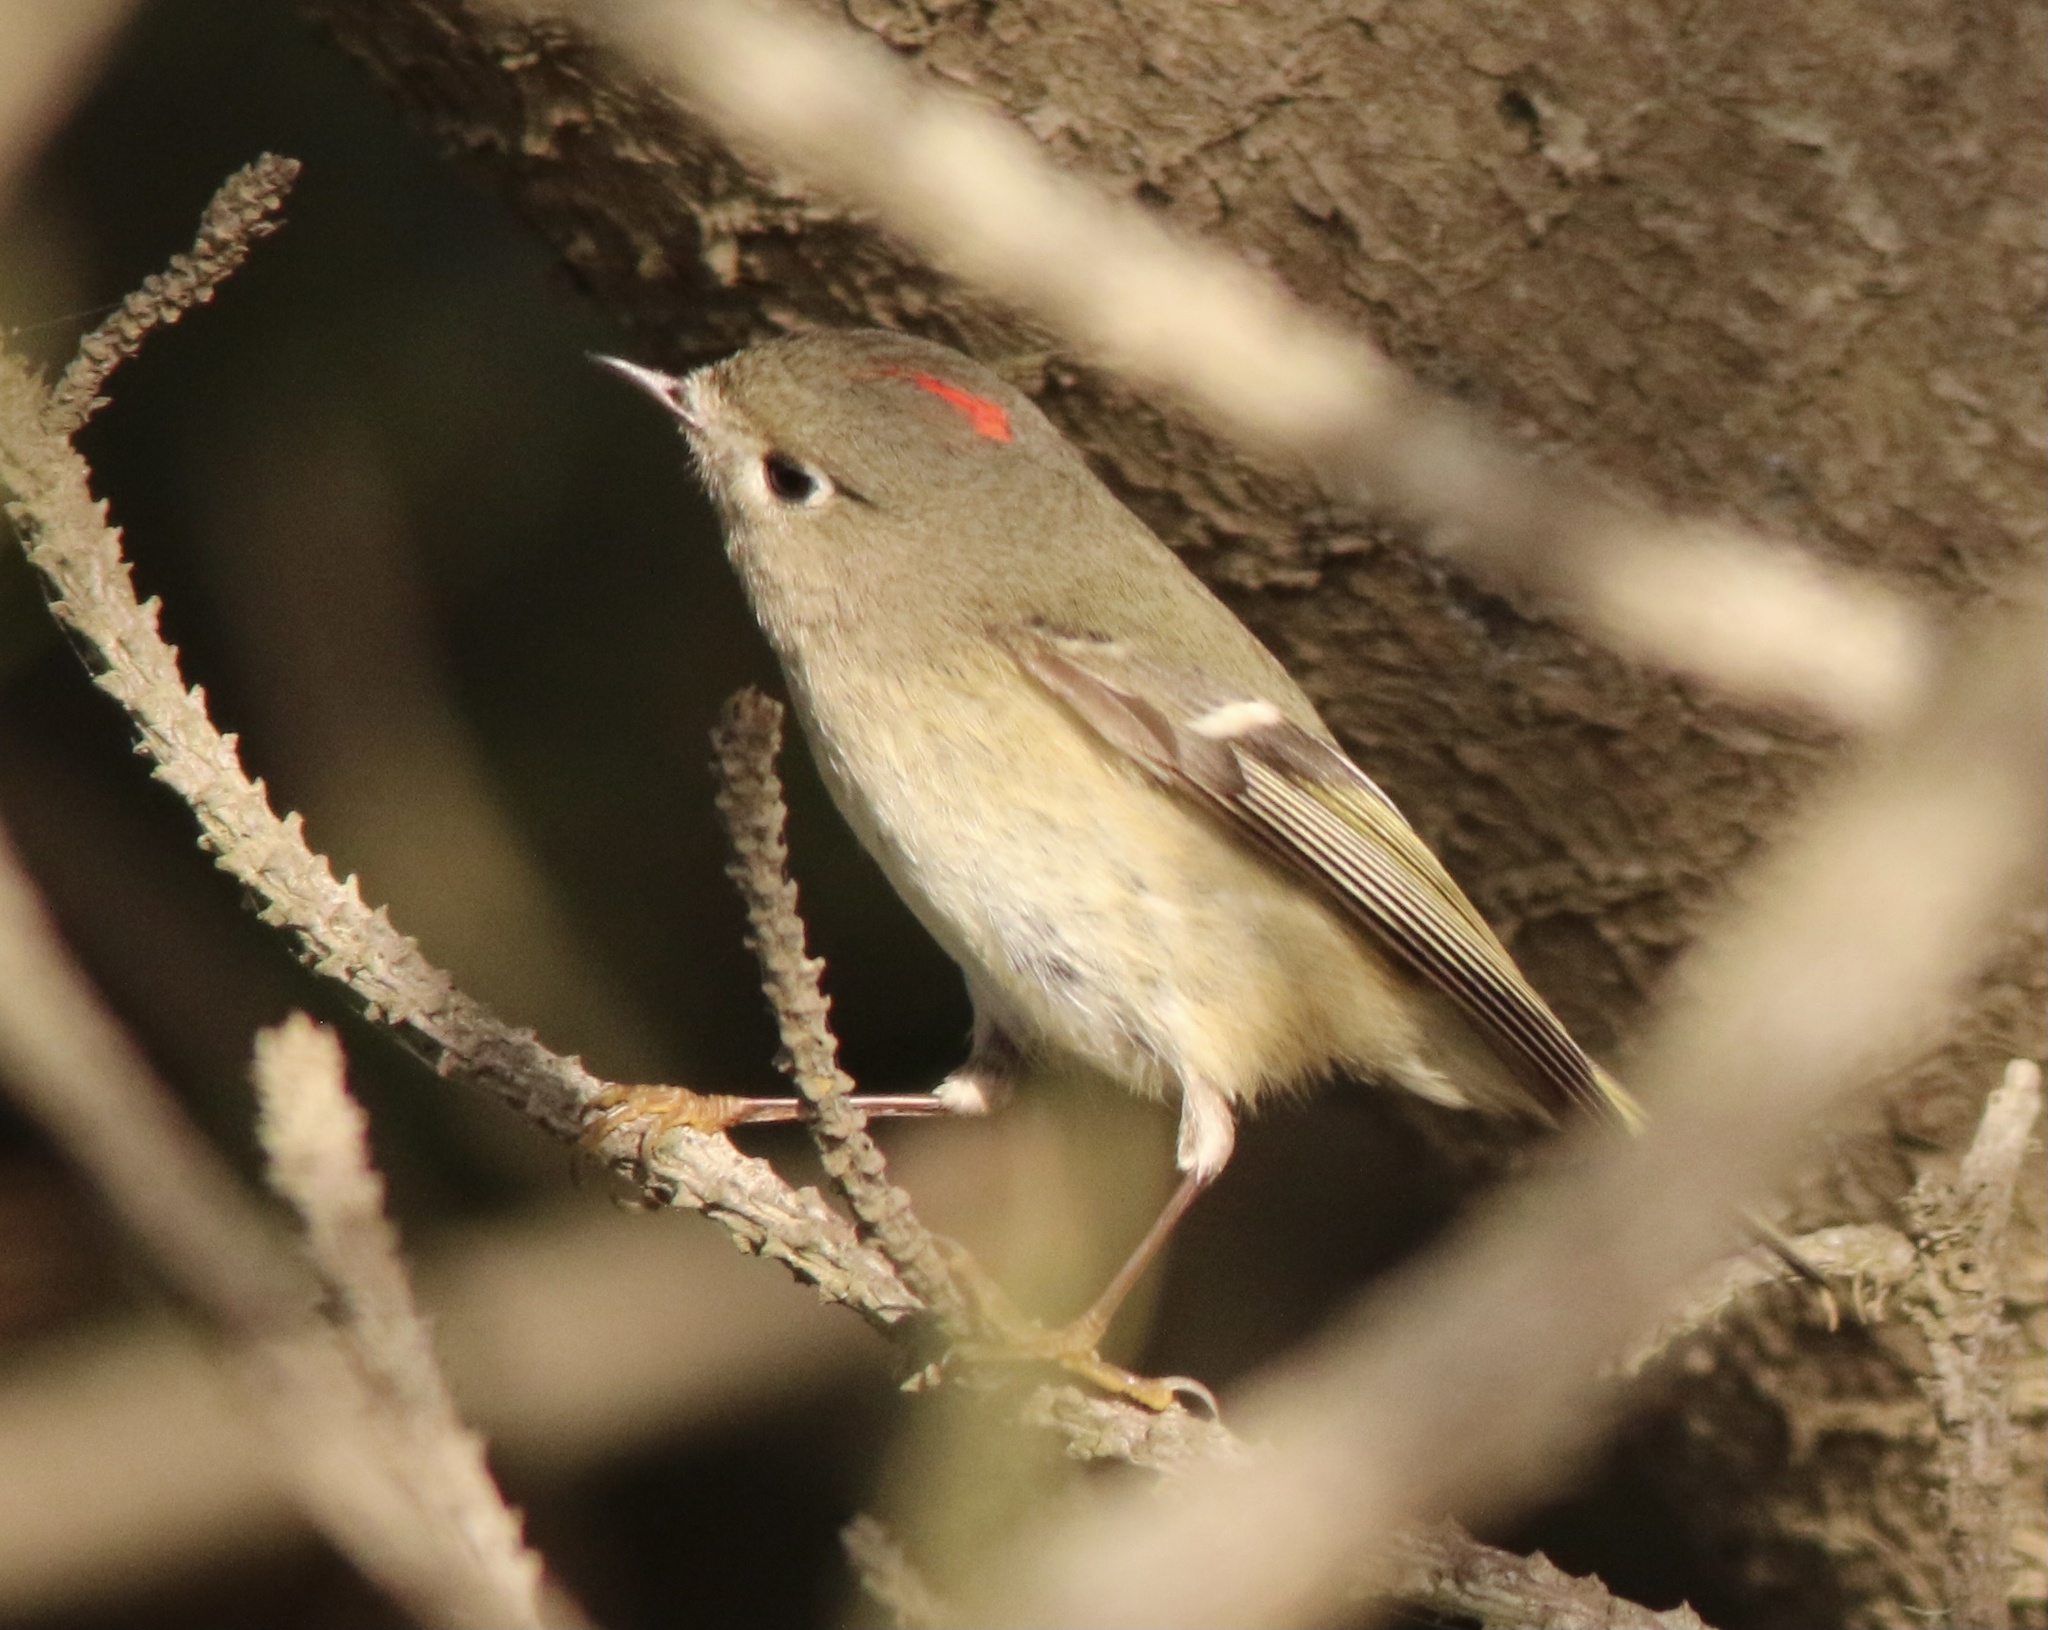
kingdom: Animalia
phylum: Chordata
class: Aves
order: Passeriformes
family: Regulidae
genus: Regulus
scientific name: Regulus calendula
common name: Ruby-crowned kinglet
